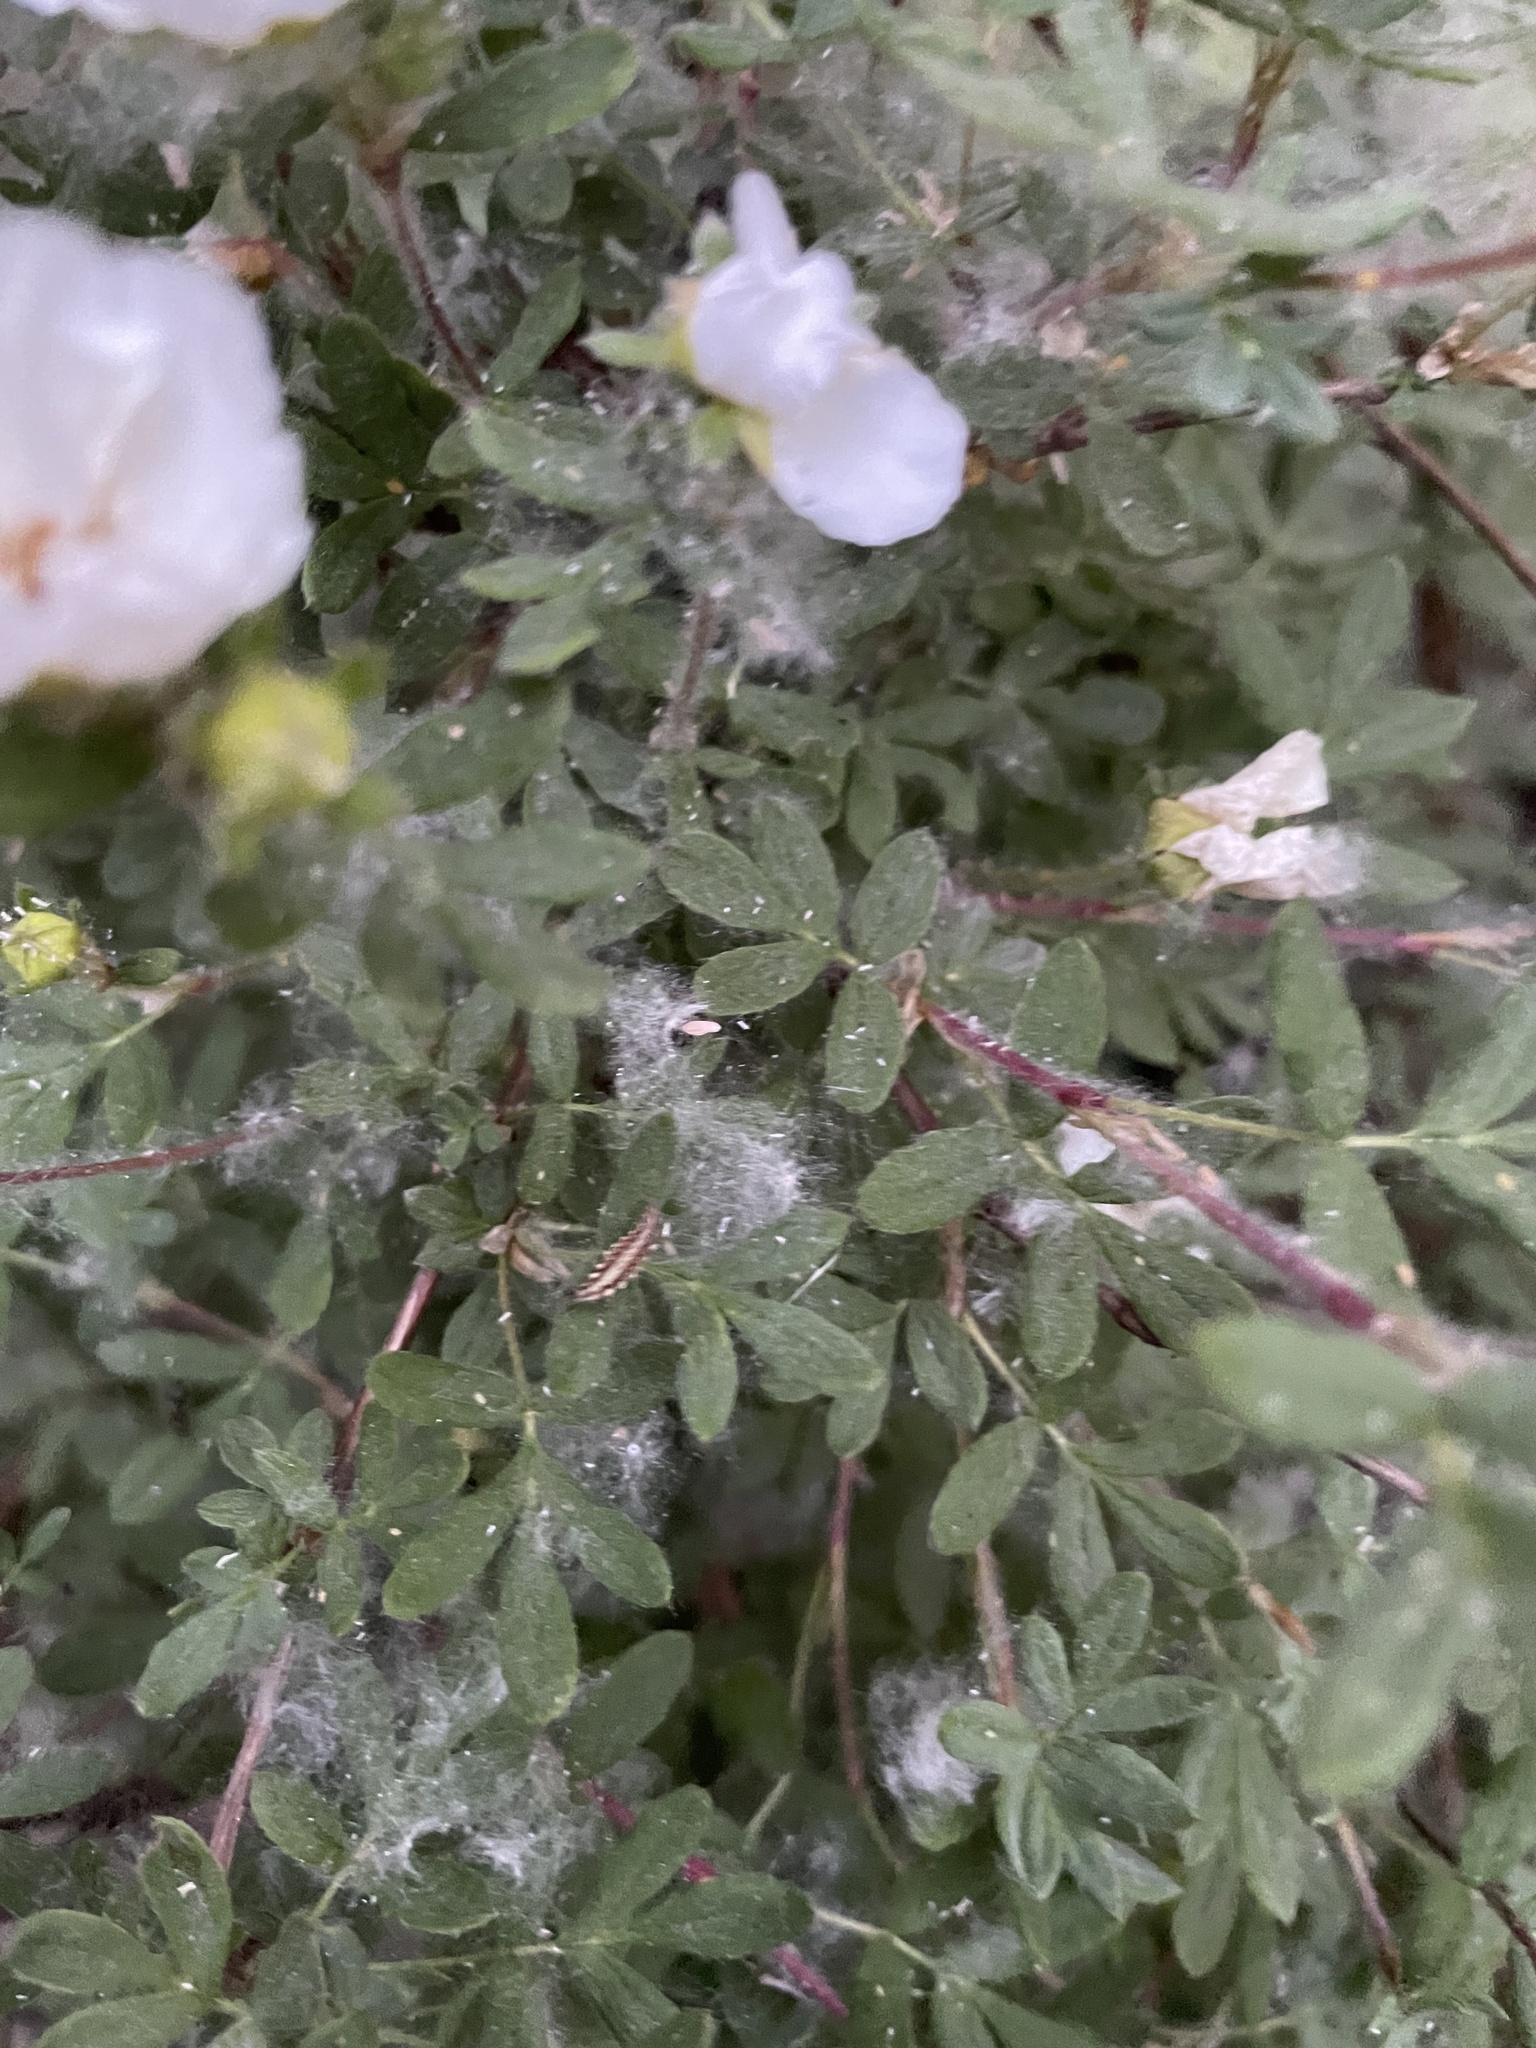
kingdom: Plantae
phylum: Tracheophyta
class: Magnoliopsida
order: Rosales
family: Rosaceae
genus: Dasiphora
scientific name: Dasiphora davurica
